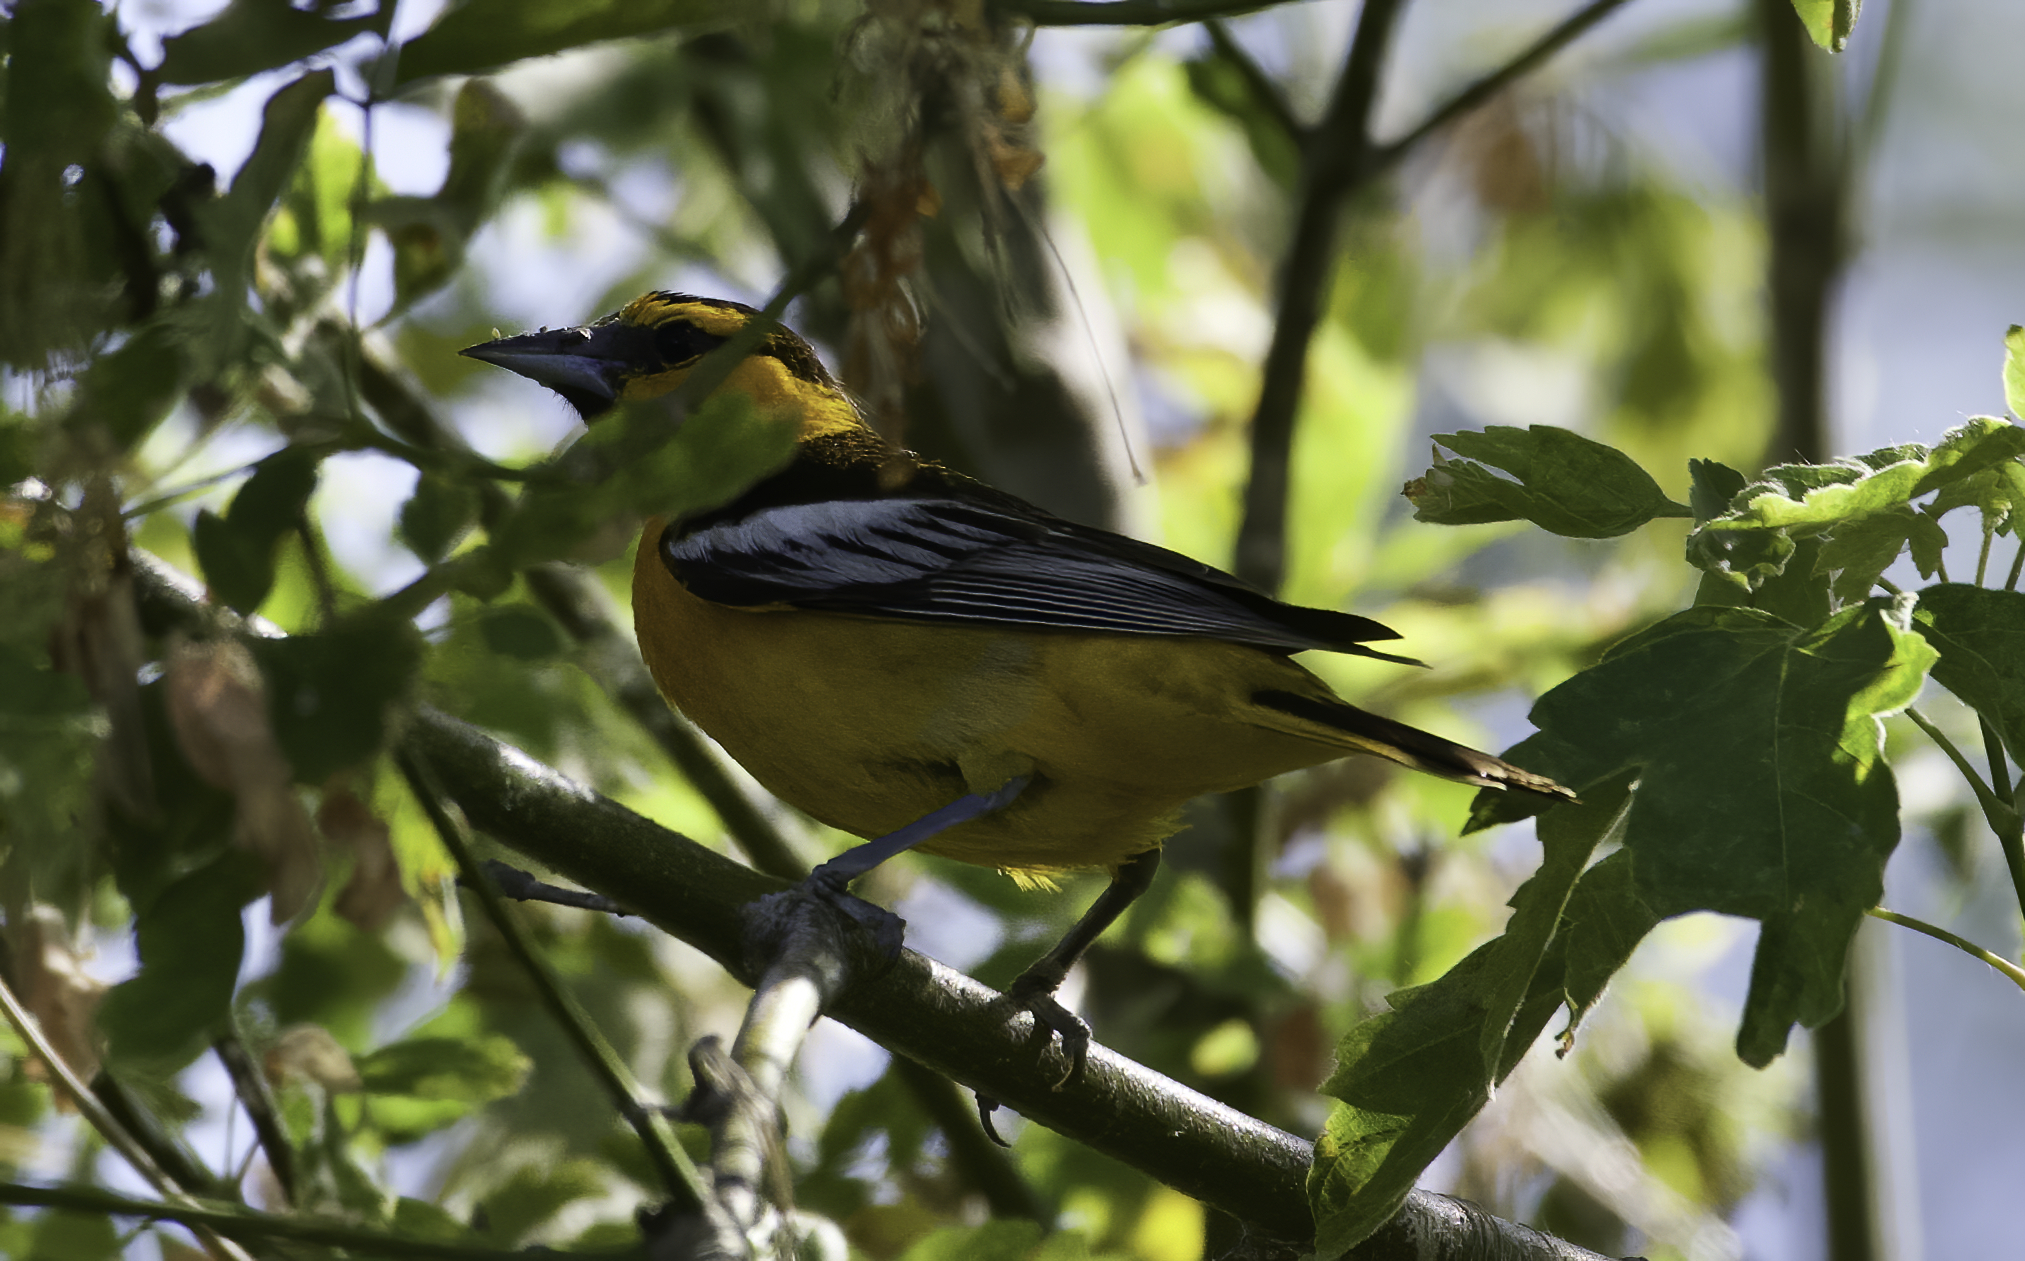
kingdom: Animalia
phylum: Chordata
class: Aves
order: Passeriformes
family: Icteridae
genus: Icterus
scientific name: Icterus bullockii
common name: Bullock's oriole
